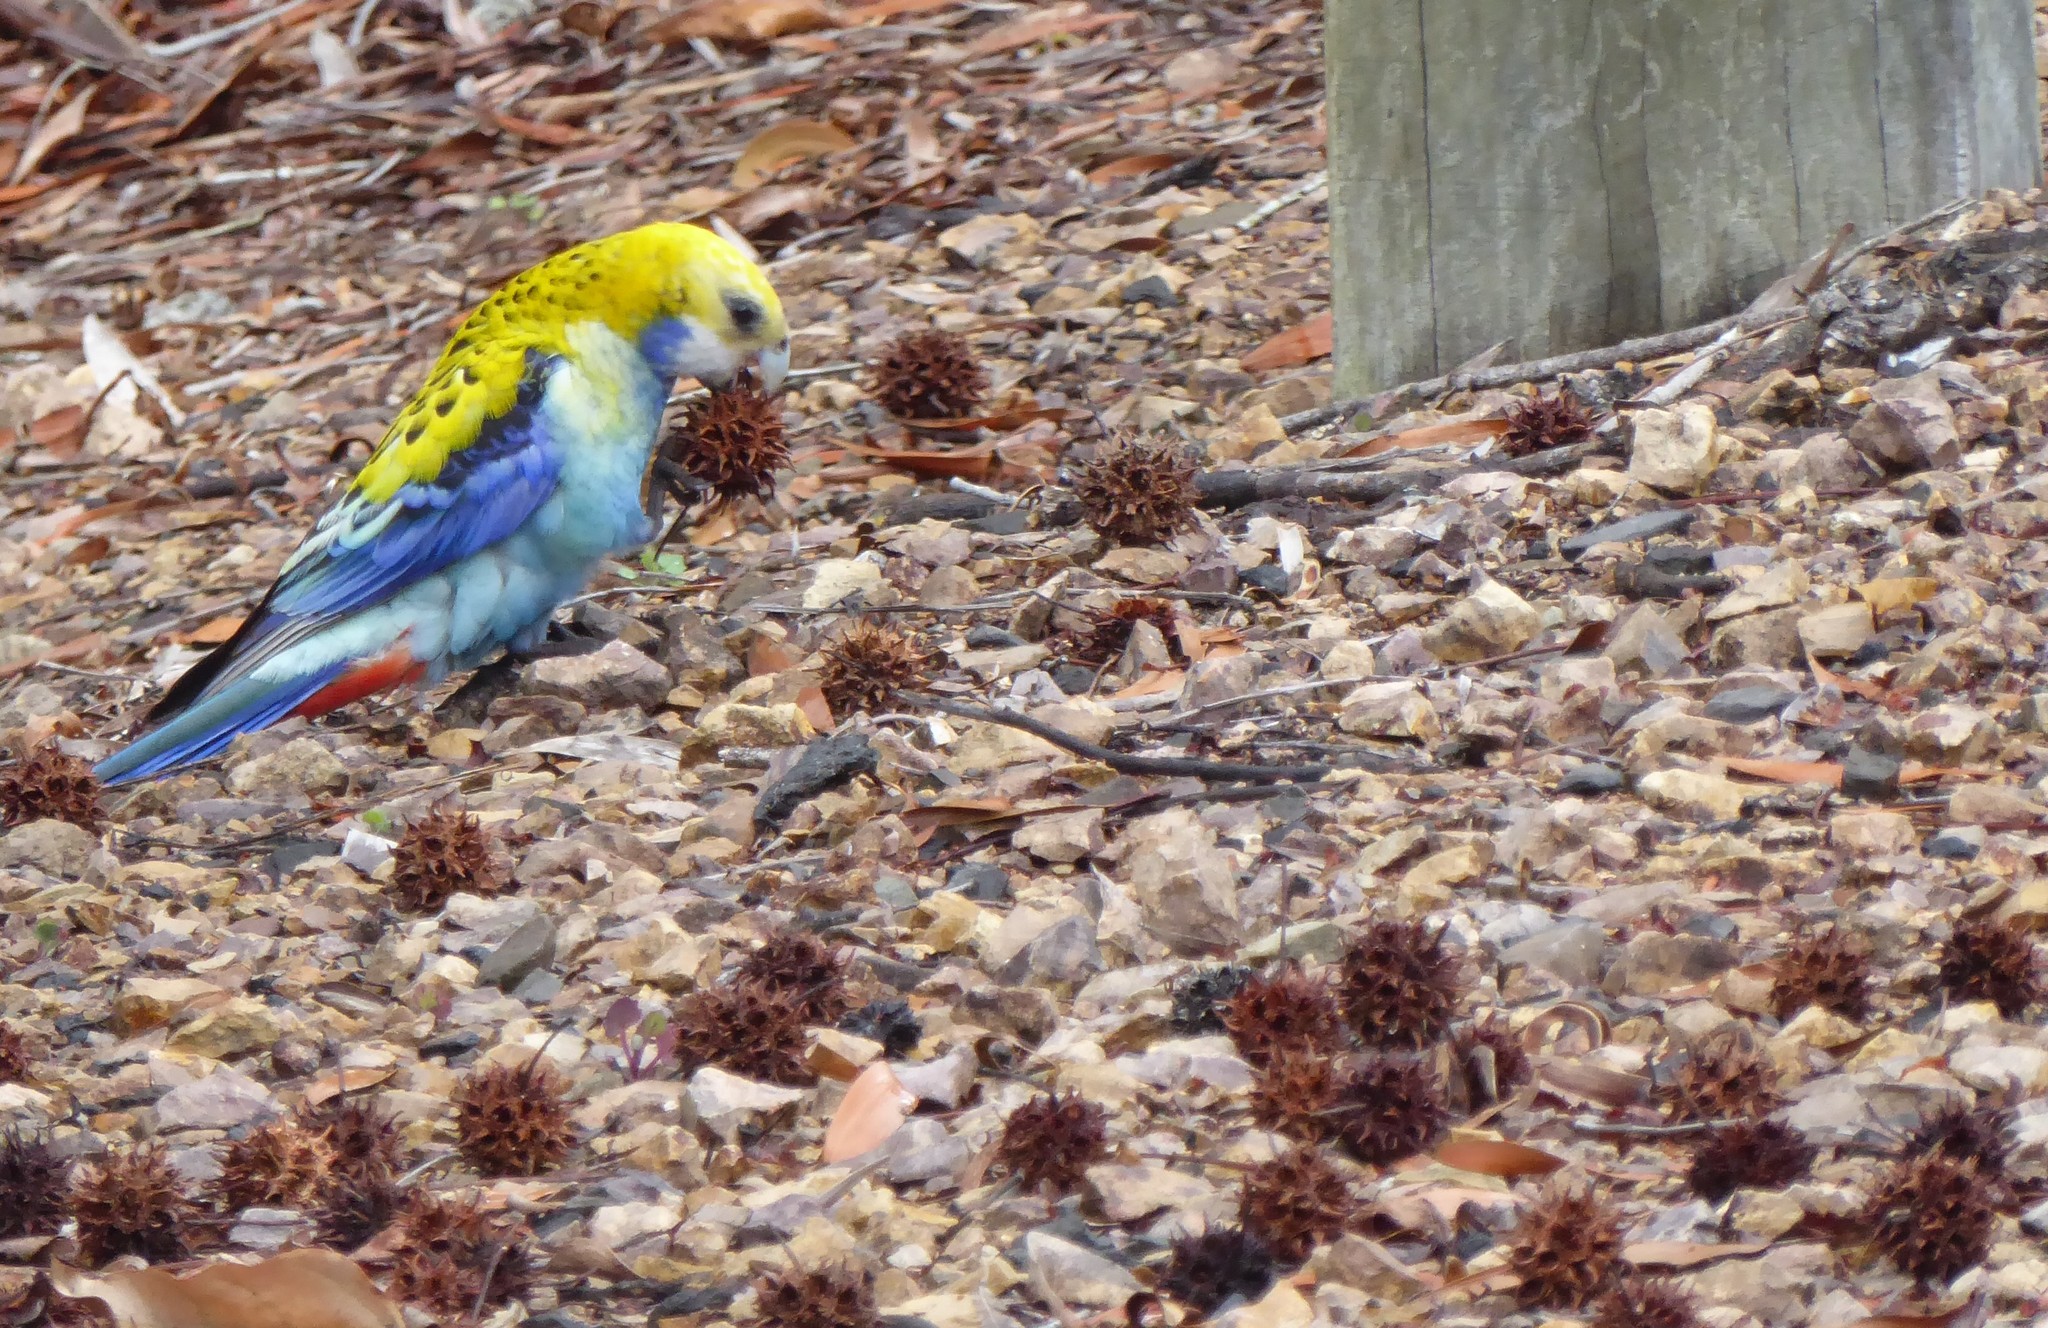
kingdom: Animalia
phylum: Chordata
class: Aves
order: Psittaciformes
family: Psittacidae
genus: Platycercus
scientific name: Platycercus adscitus
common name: Pale-headed rosella
